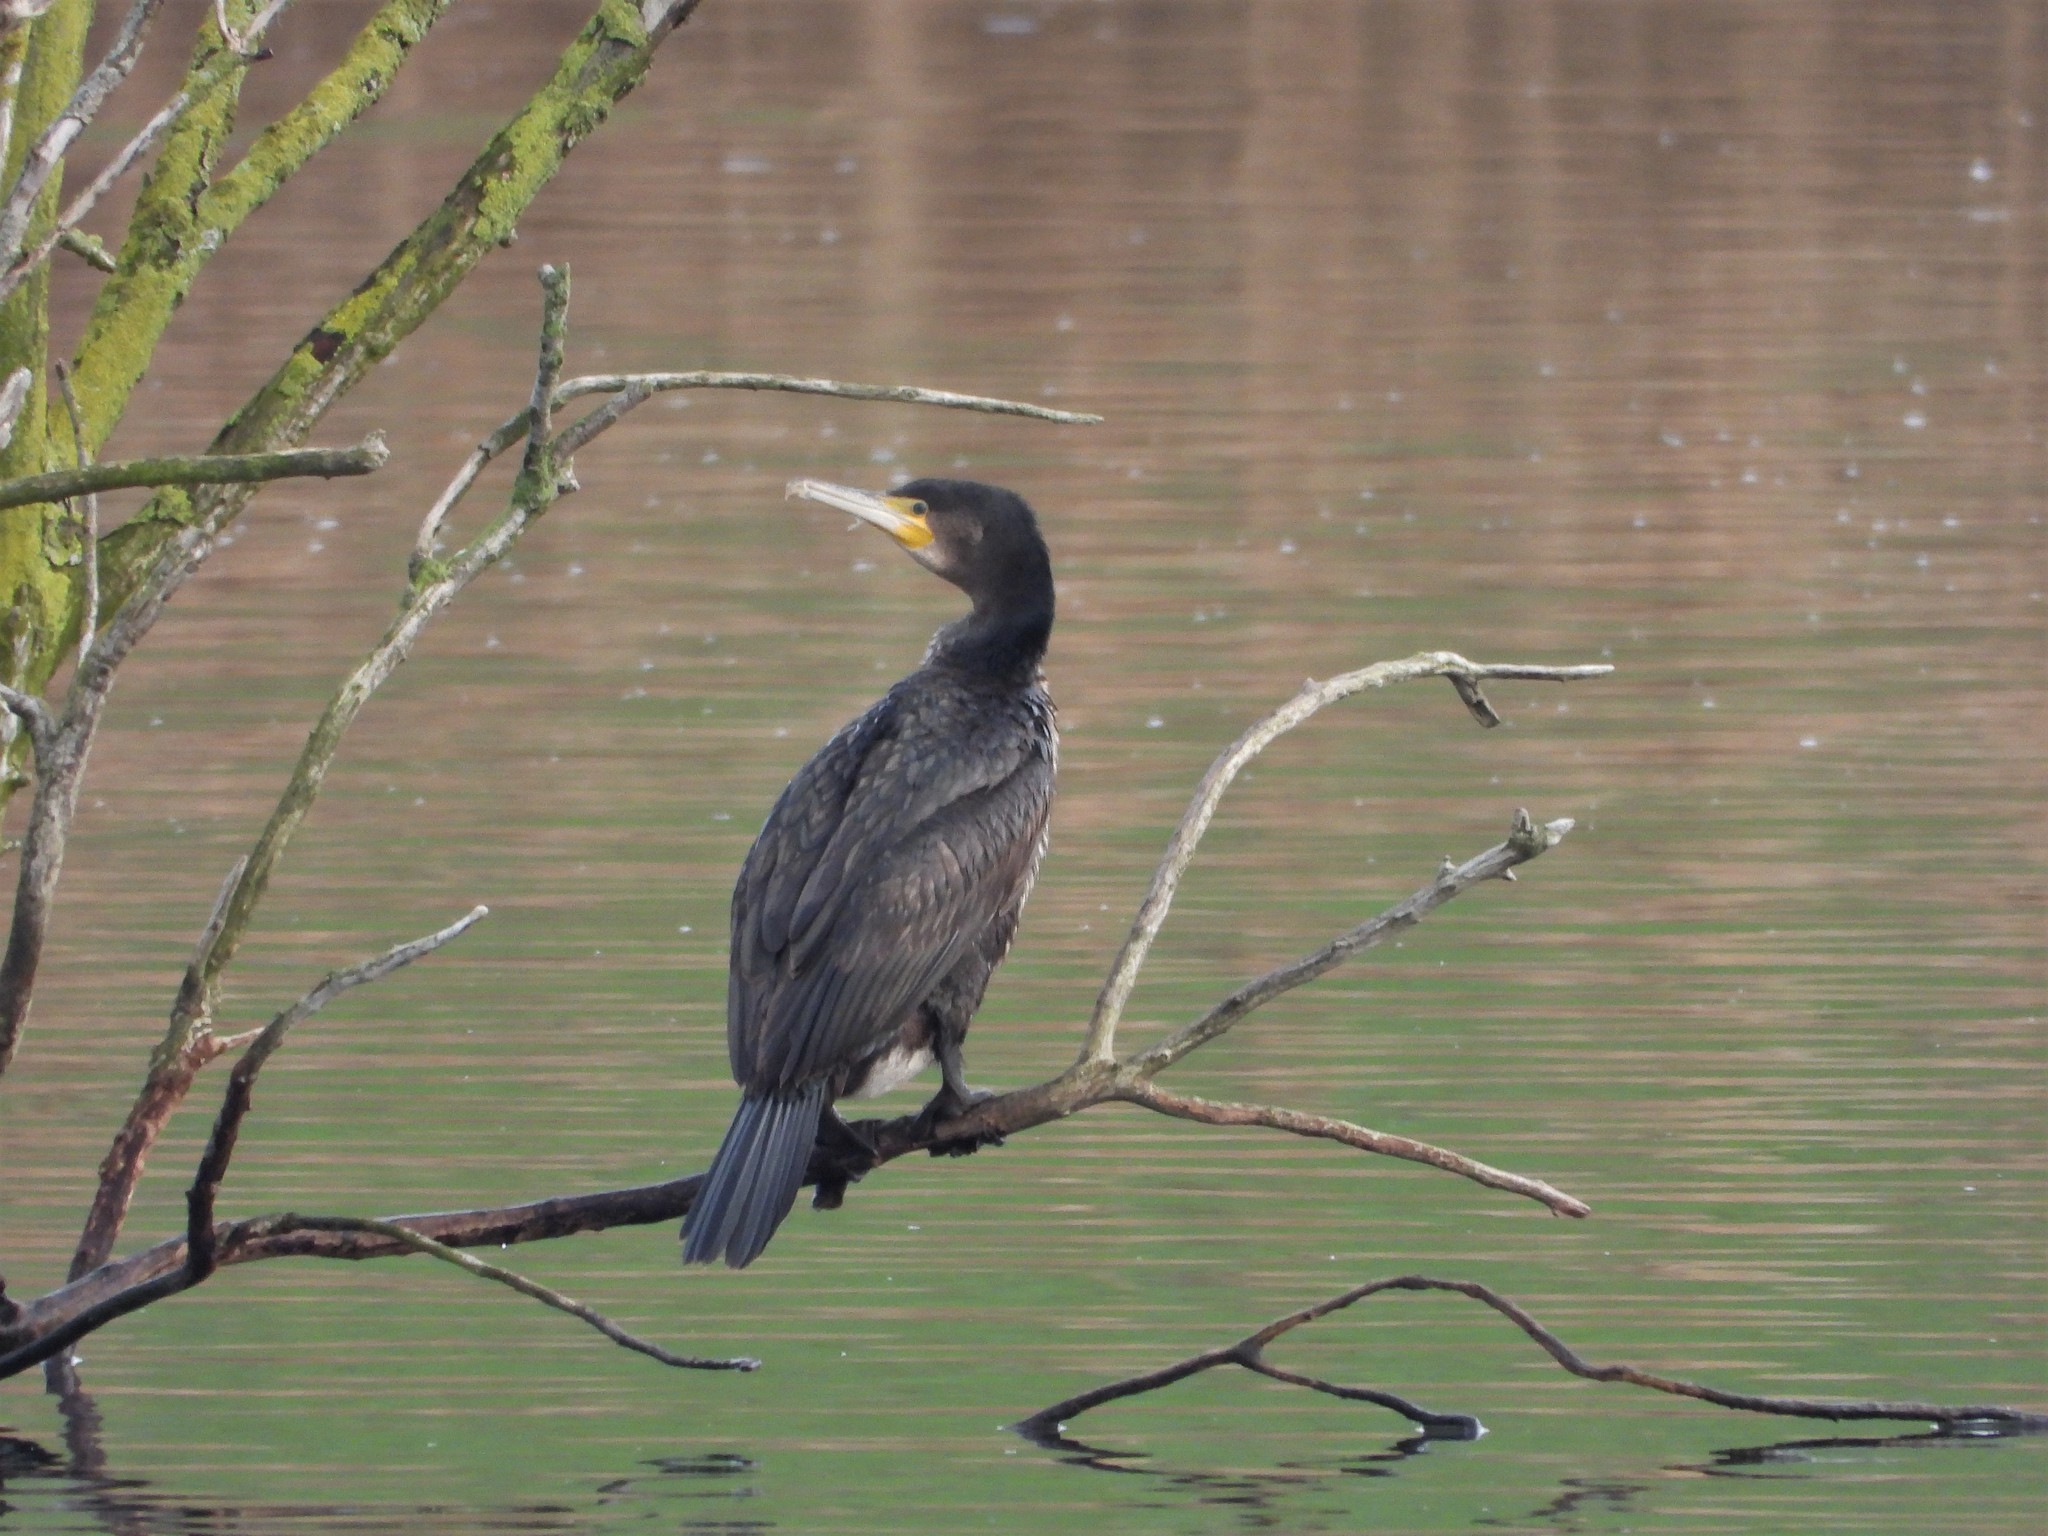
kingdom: Animalia
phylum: Chordata
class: Aves
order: Suliformes
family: Phalacrocoracidae
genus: Phalacrocorax
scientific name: Phalacrocorax carbo
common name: Great cormorant
